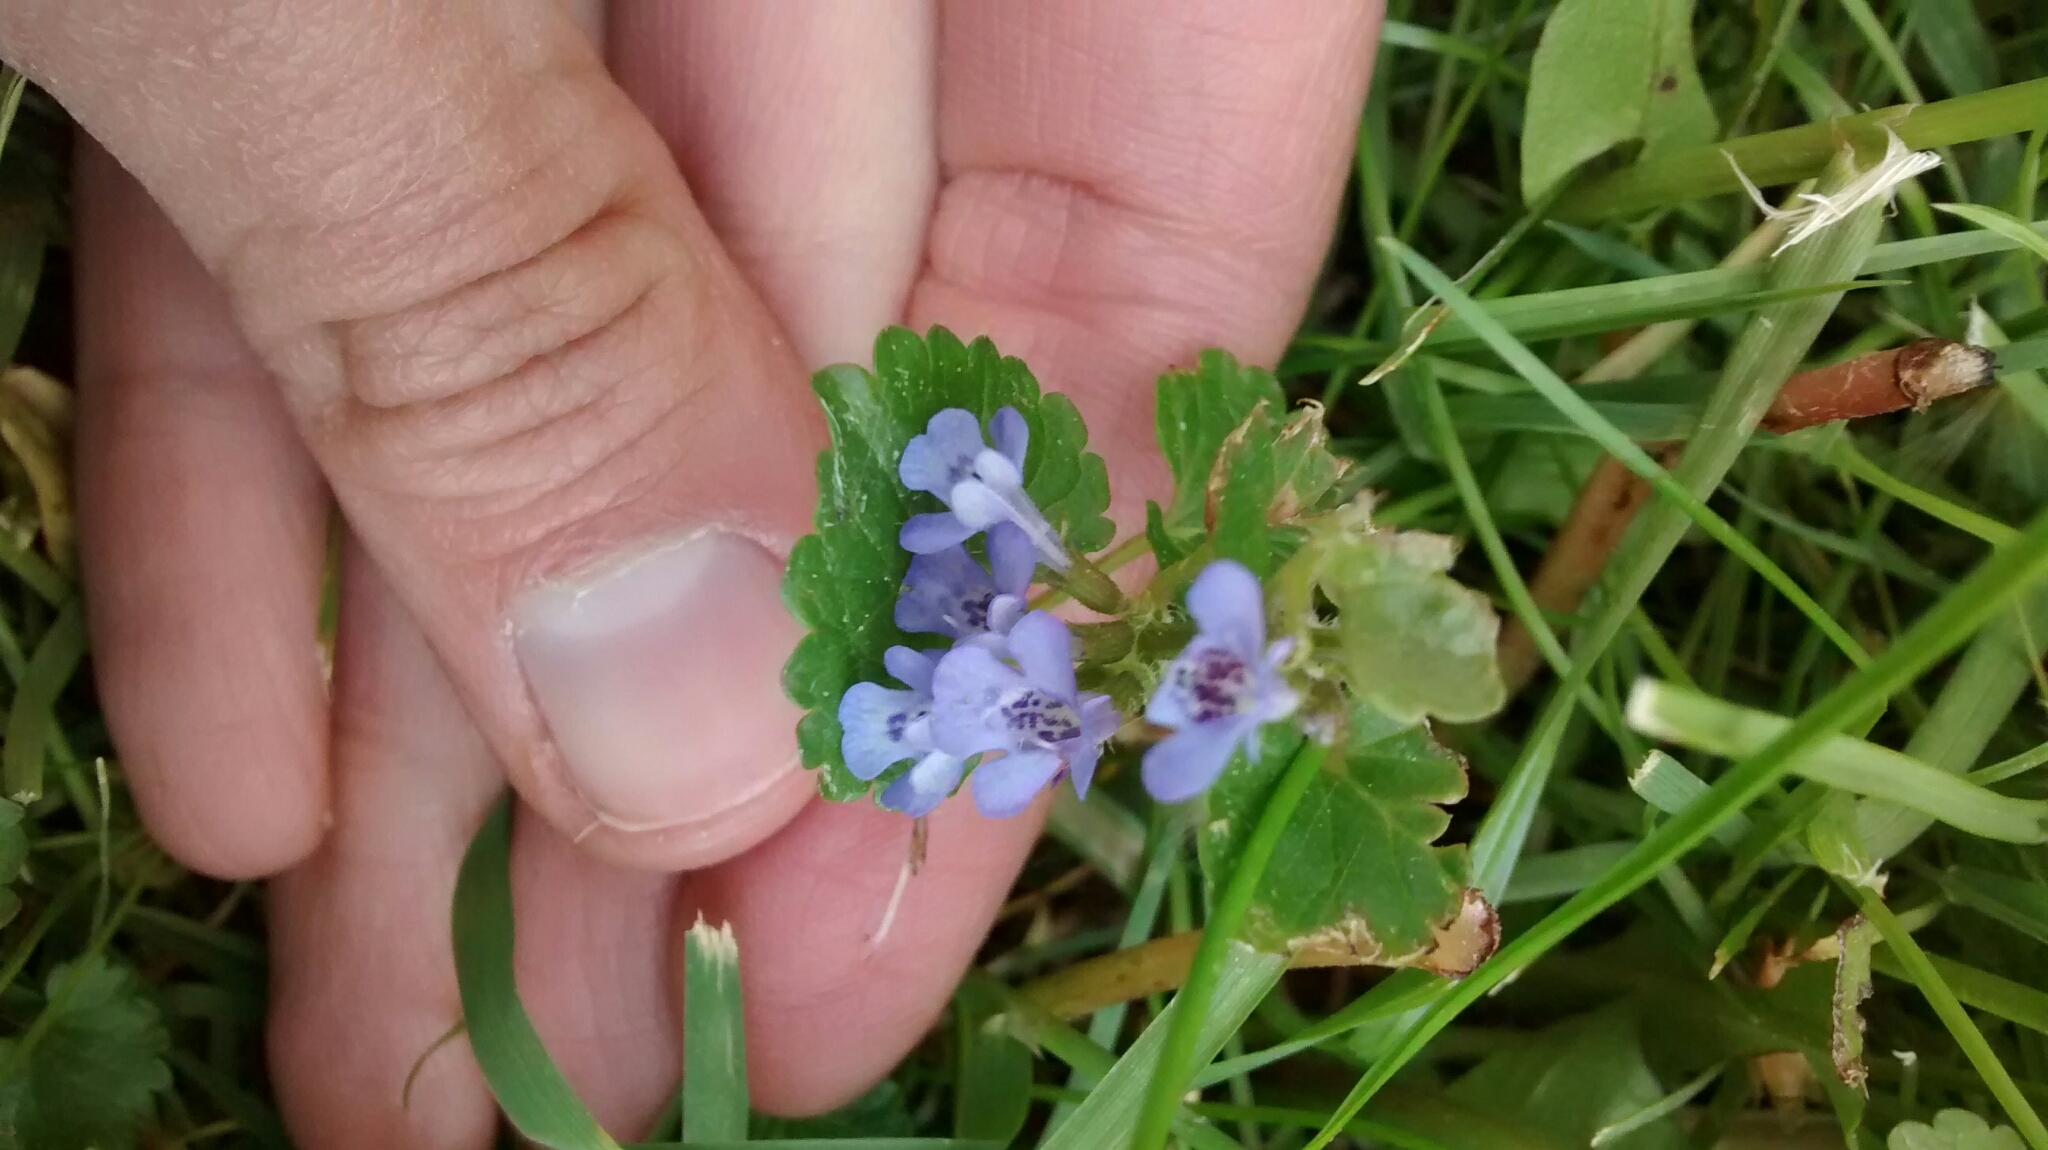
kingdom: Plantae
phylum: Tracheophyta
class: Magnoliopsida
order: Lamiales
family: Lamiaceae
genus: Glechoma
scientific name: Glechoma hederacea
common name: Ground ivy
